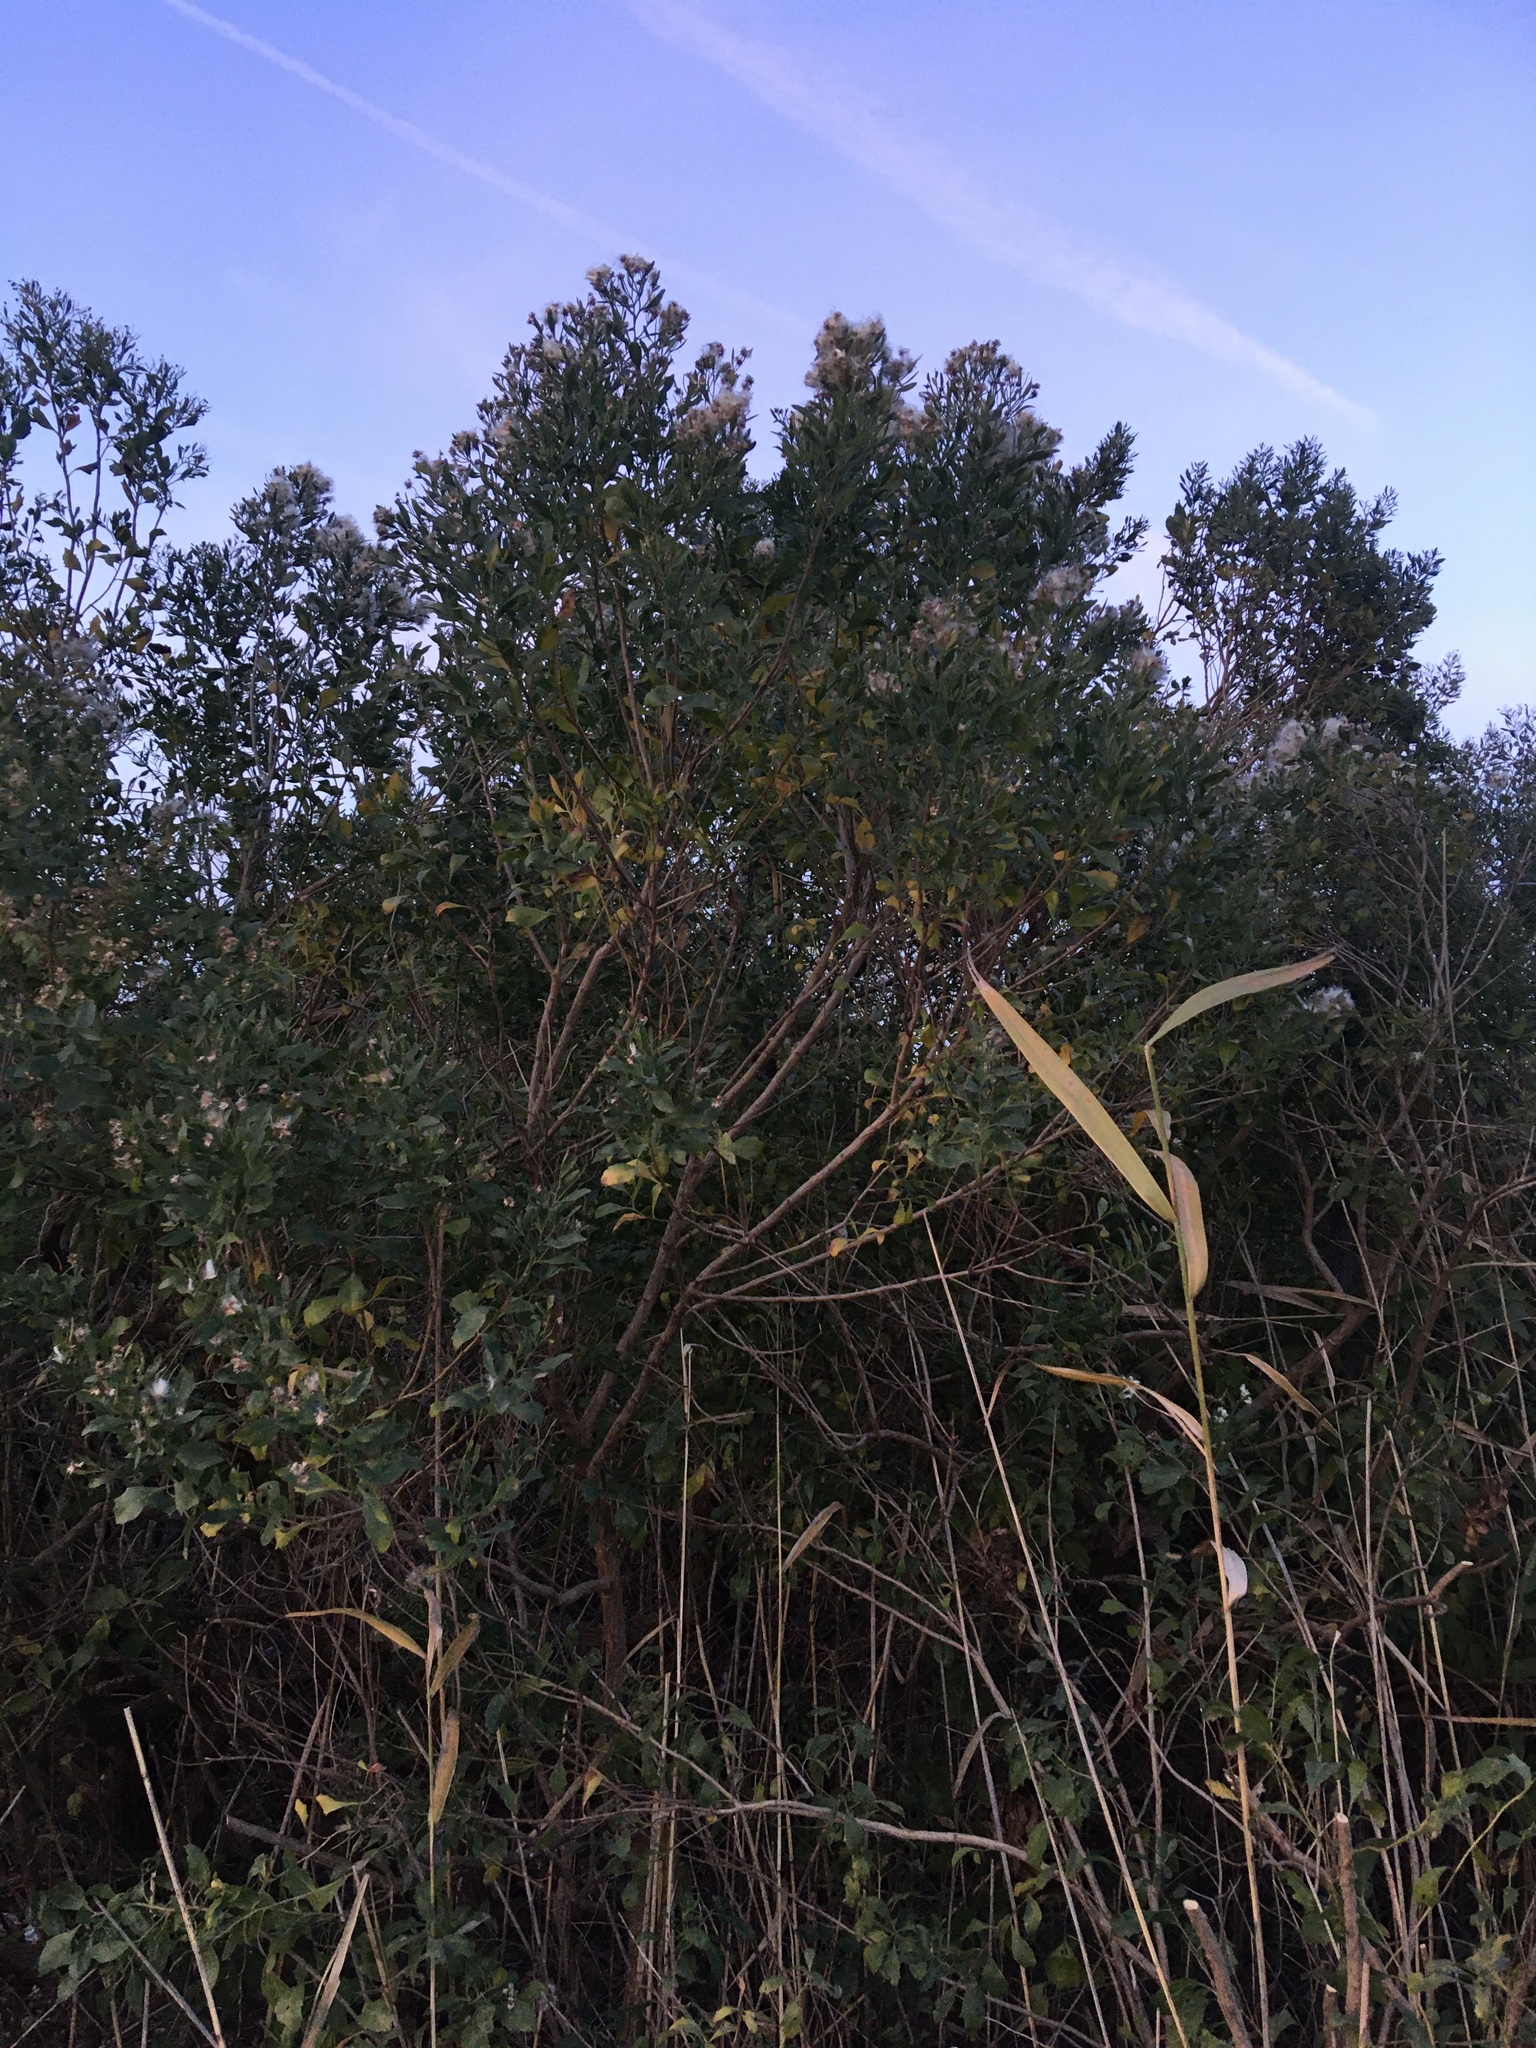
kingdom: Plantae
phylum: Tracheophyta
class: Magnoliopsida
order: Asterales
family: Asteraceae
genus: Baccharis
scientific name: Baccharis halimifolia
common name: Eastern baccharis
